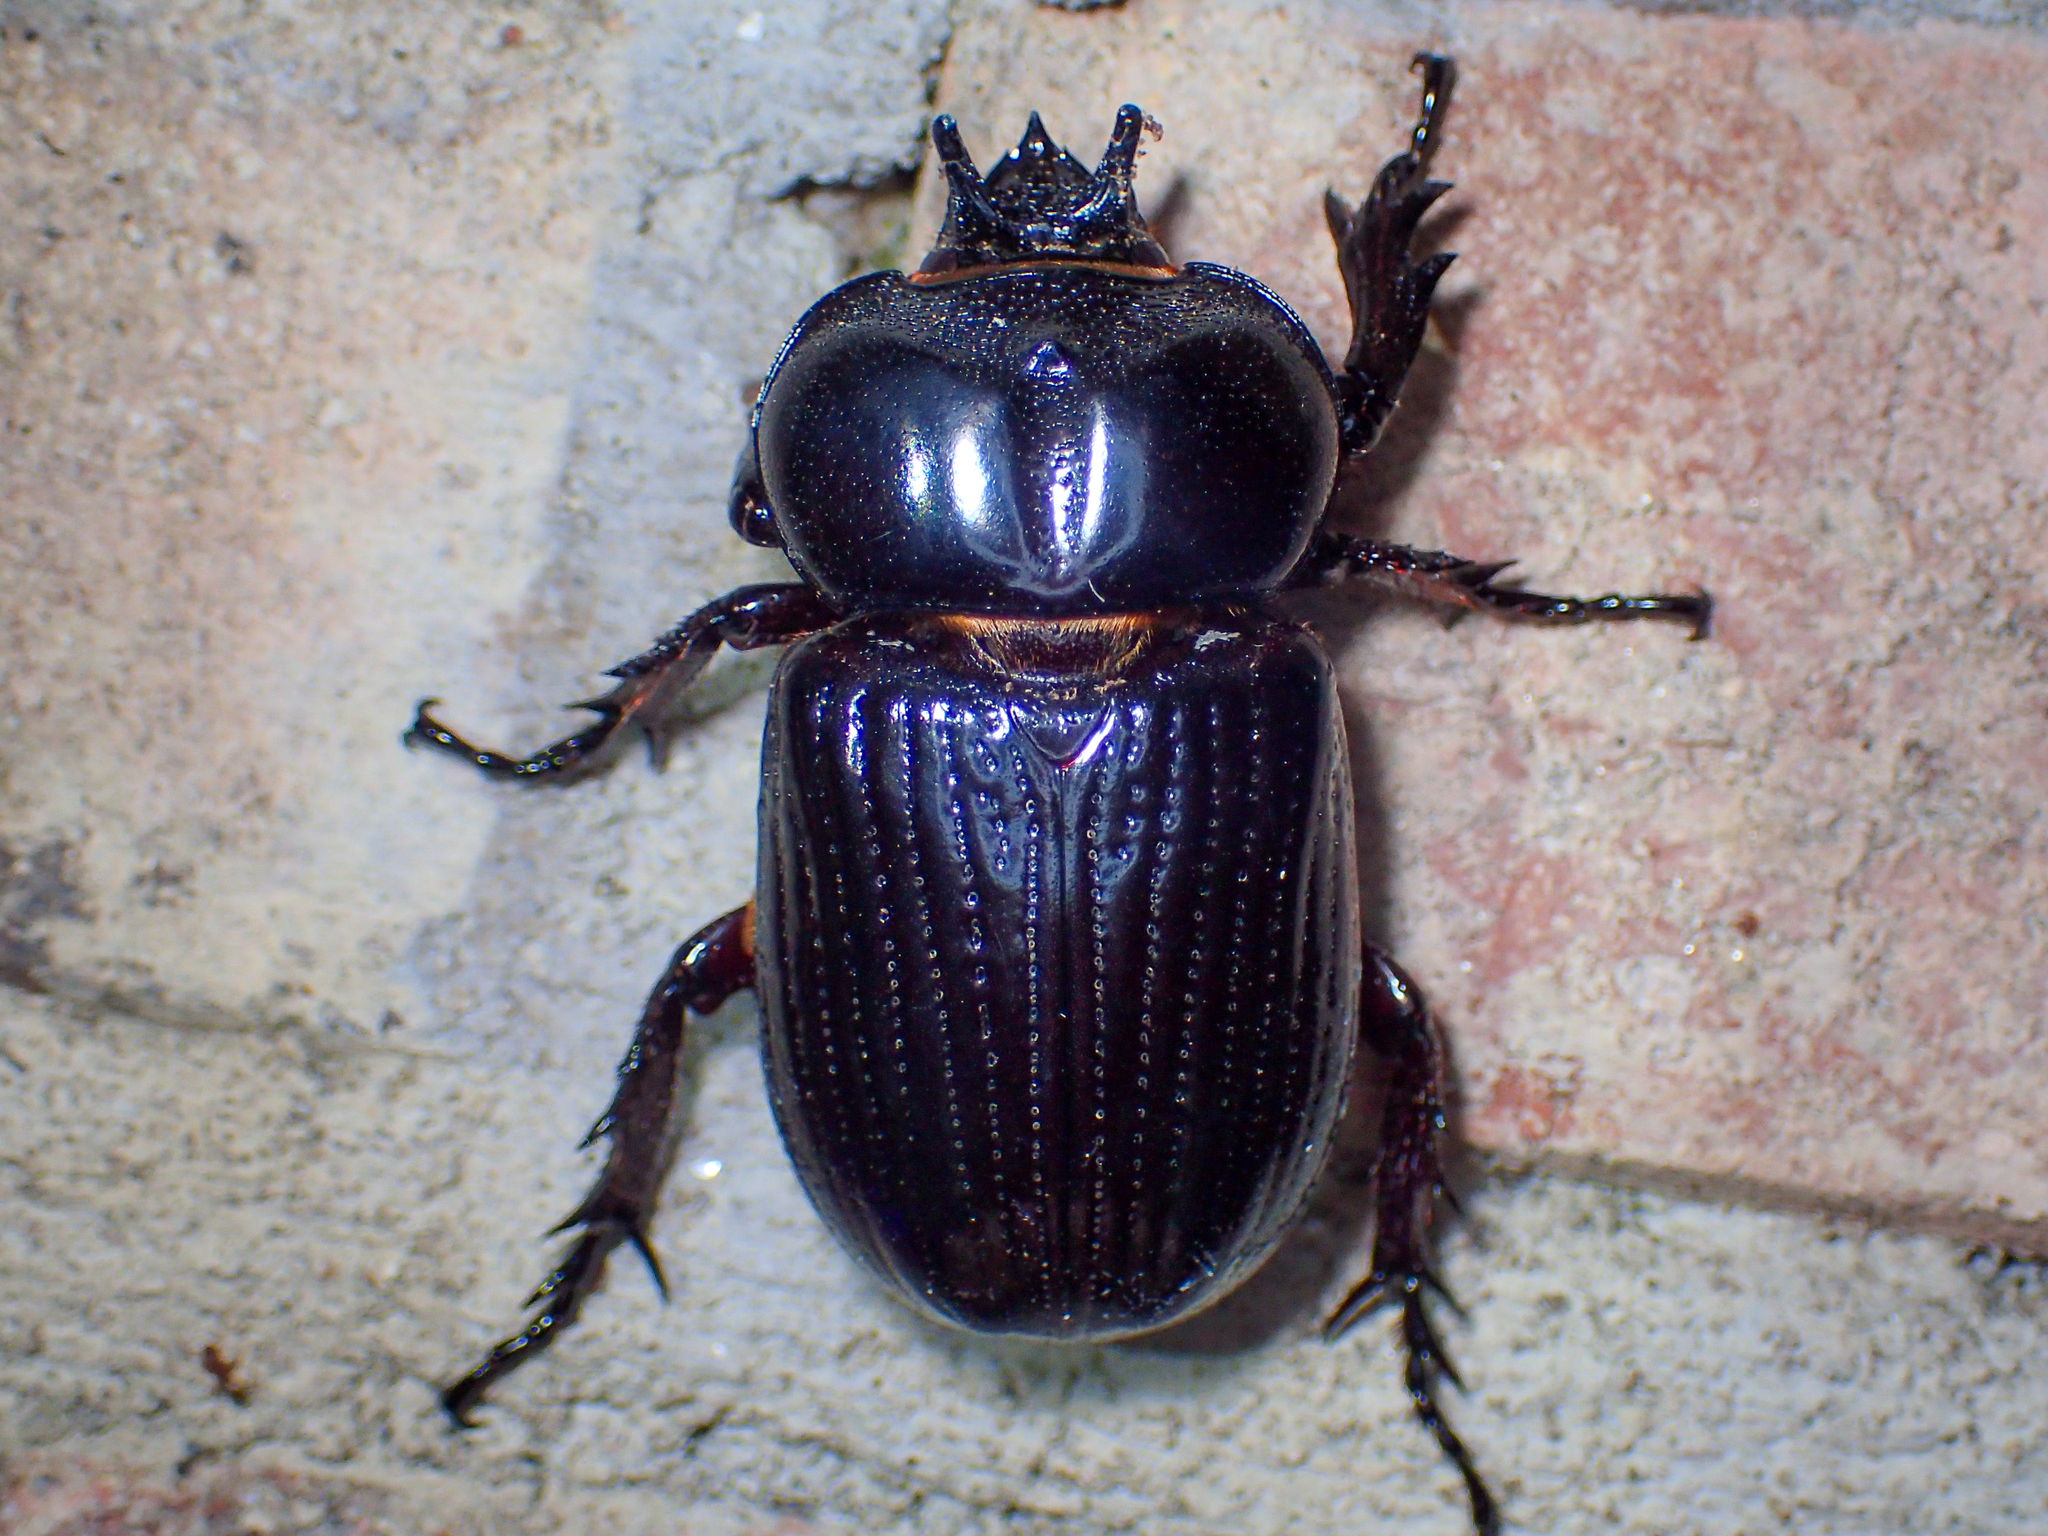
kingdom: Animalia
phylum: Arthropoda
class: Insecta
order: Coleoptera
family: Scarabaeidae
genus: Phileurus
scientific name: Phileurus truncatus
